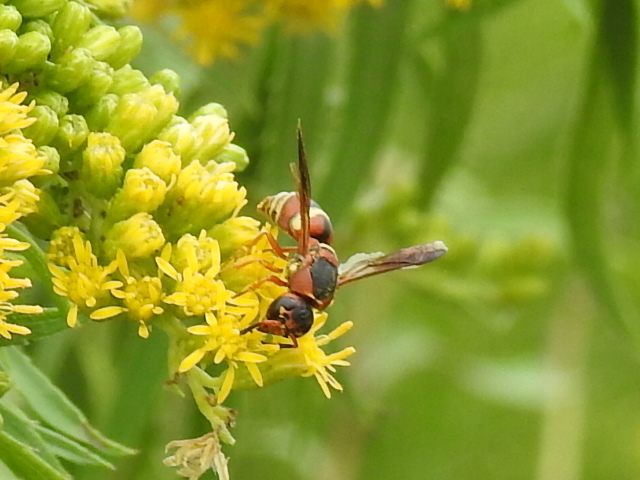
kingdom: Animalia
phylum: Arthropoda
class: Insecta
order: Hymenoptera
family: Eumenidae
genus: Euodynerus
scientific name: Euodynerus hidalgo
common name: Wasp
